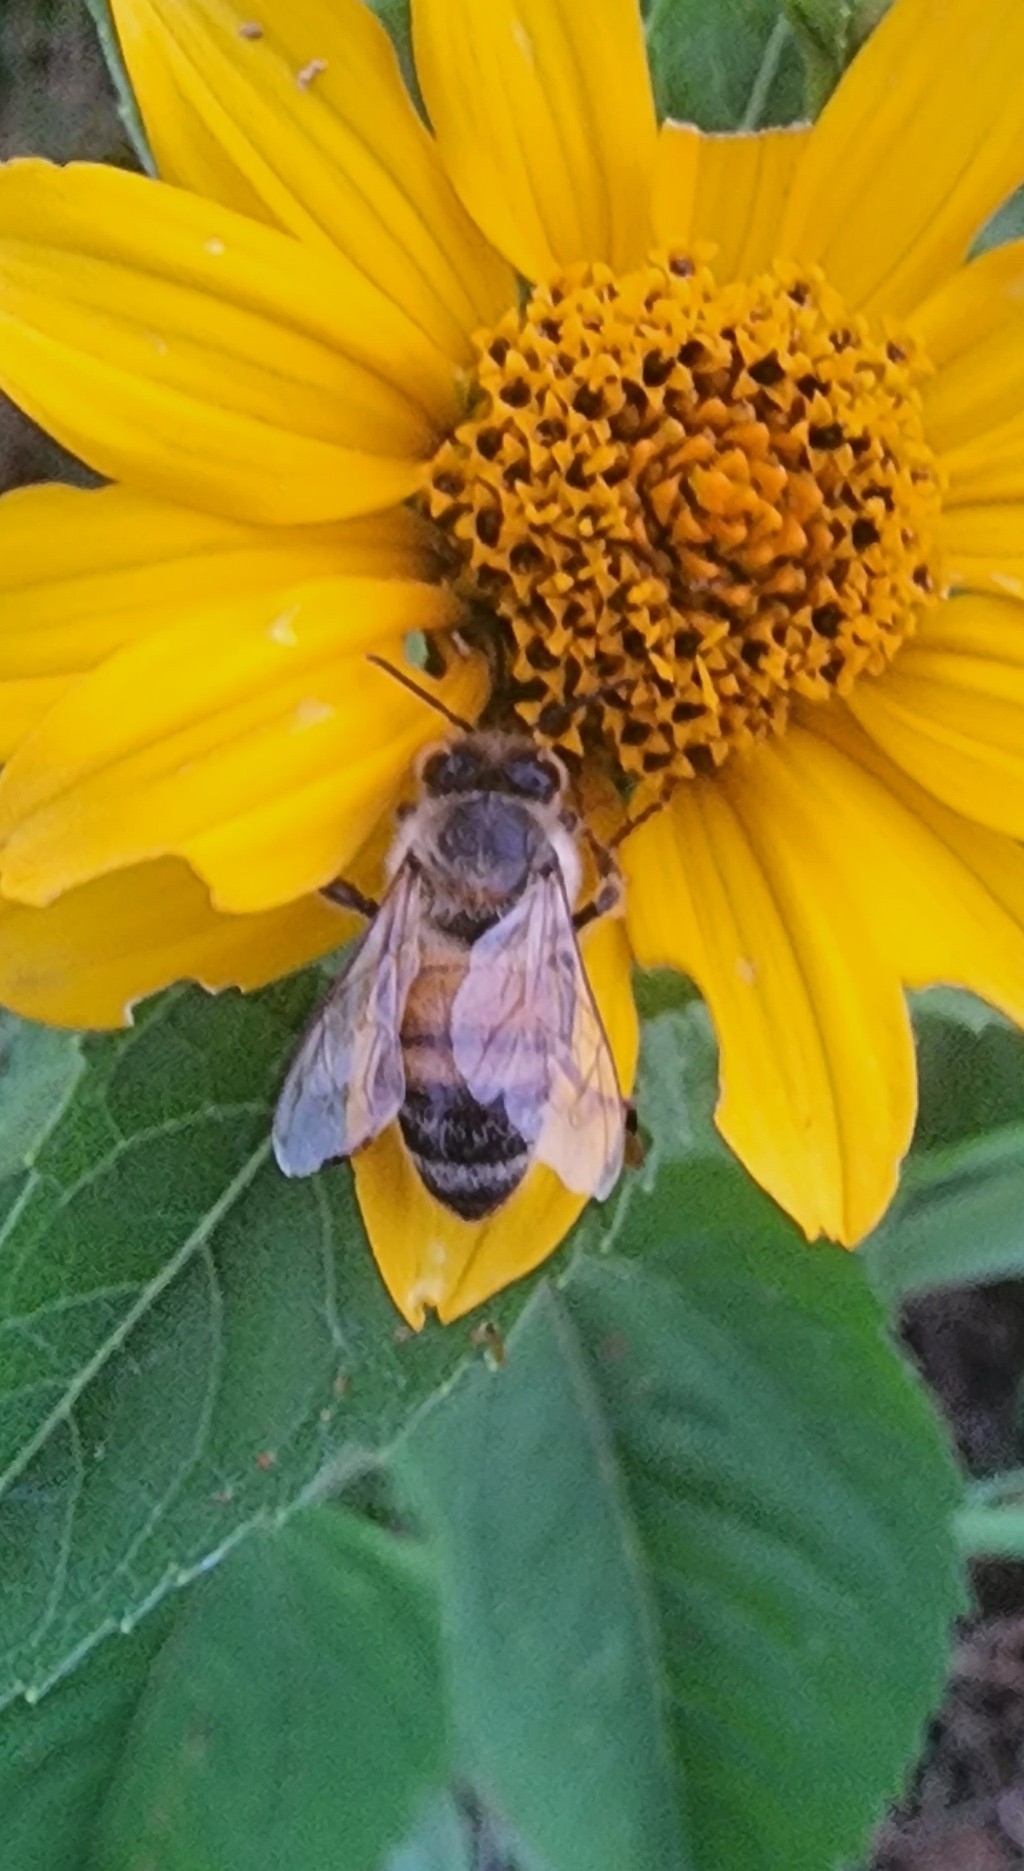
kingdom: Animalia
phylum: Arthropoda
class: Insecta
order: Hymenoptera
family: Apidae
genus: Apis
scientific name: Apis mellifera
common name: Honey bee
